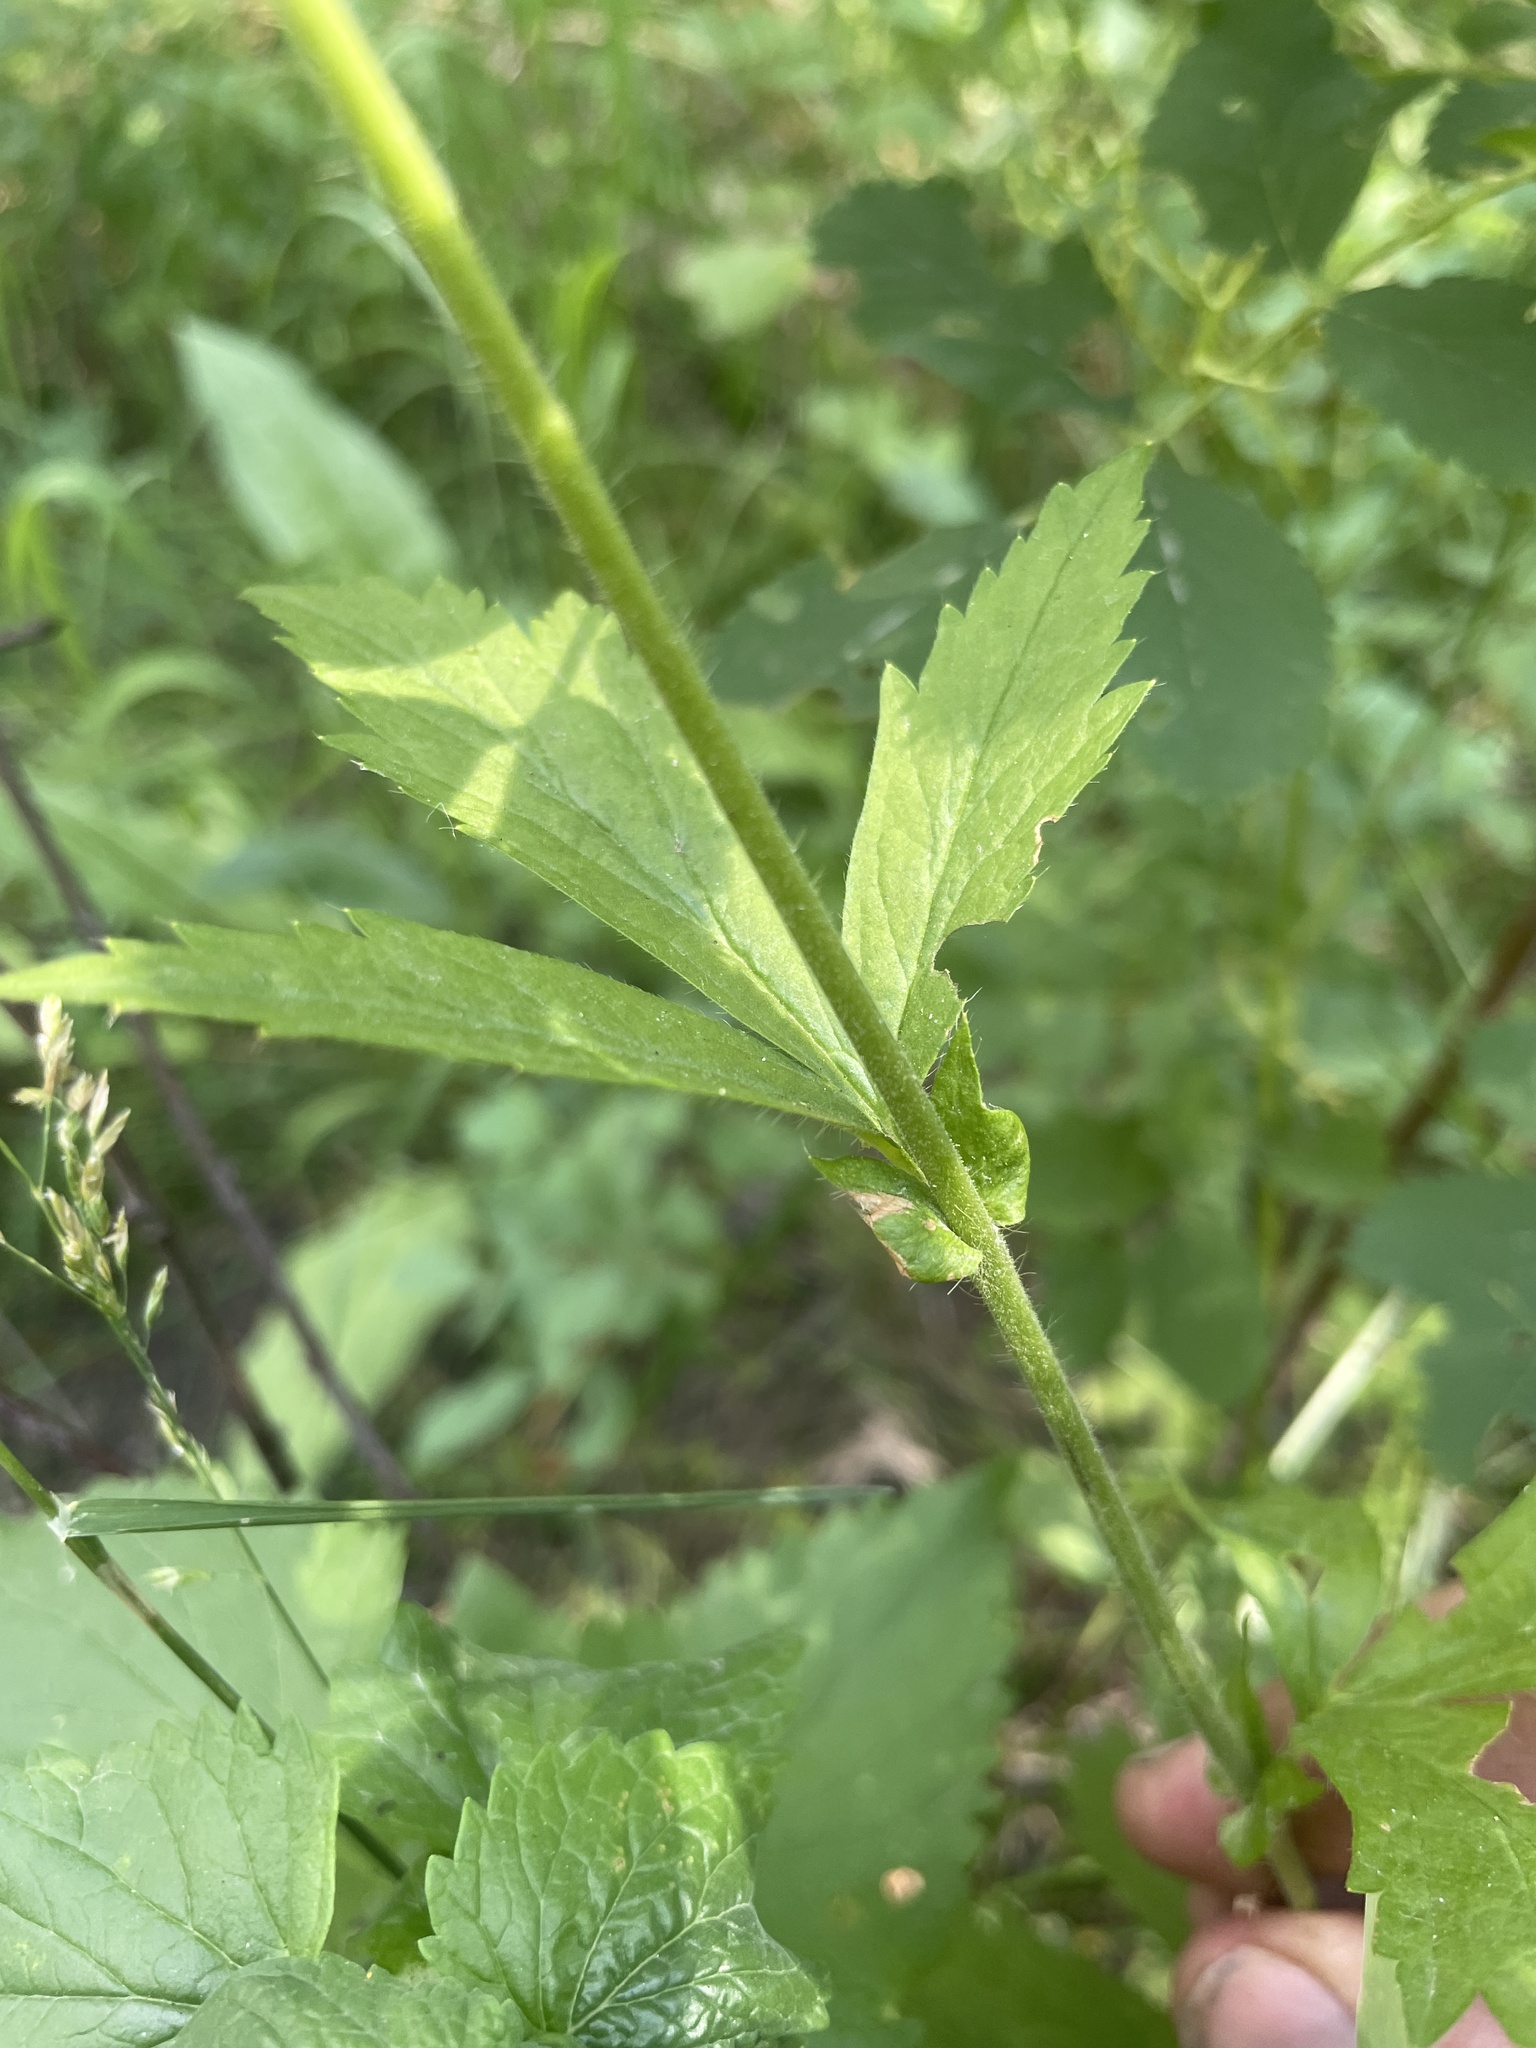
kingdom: Plantae
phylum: Tracheophyta
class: Magnoliopsida
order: Rosales
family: Rosaceae
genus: Geum
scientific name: Geum macrophyllum
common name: Large-leaved avens
